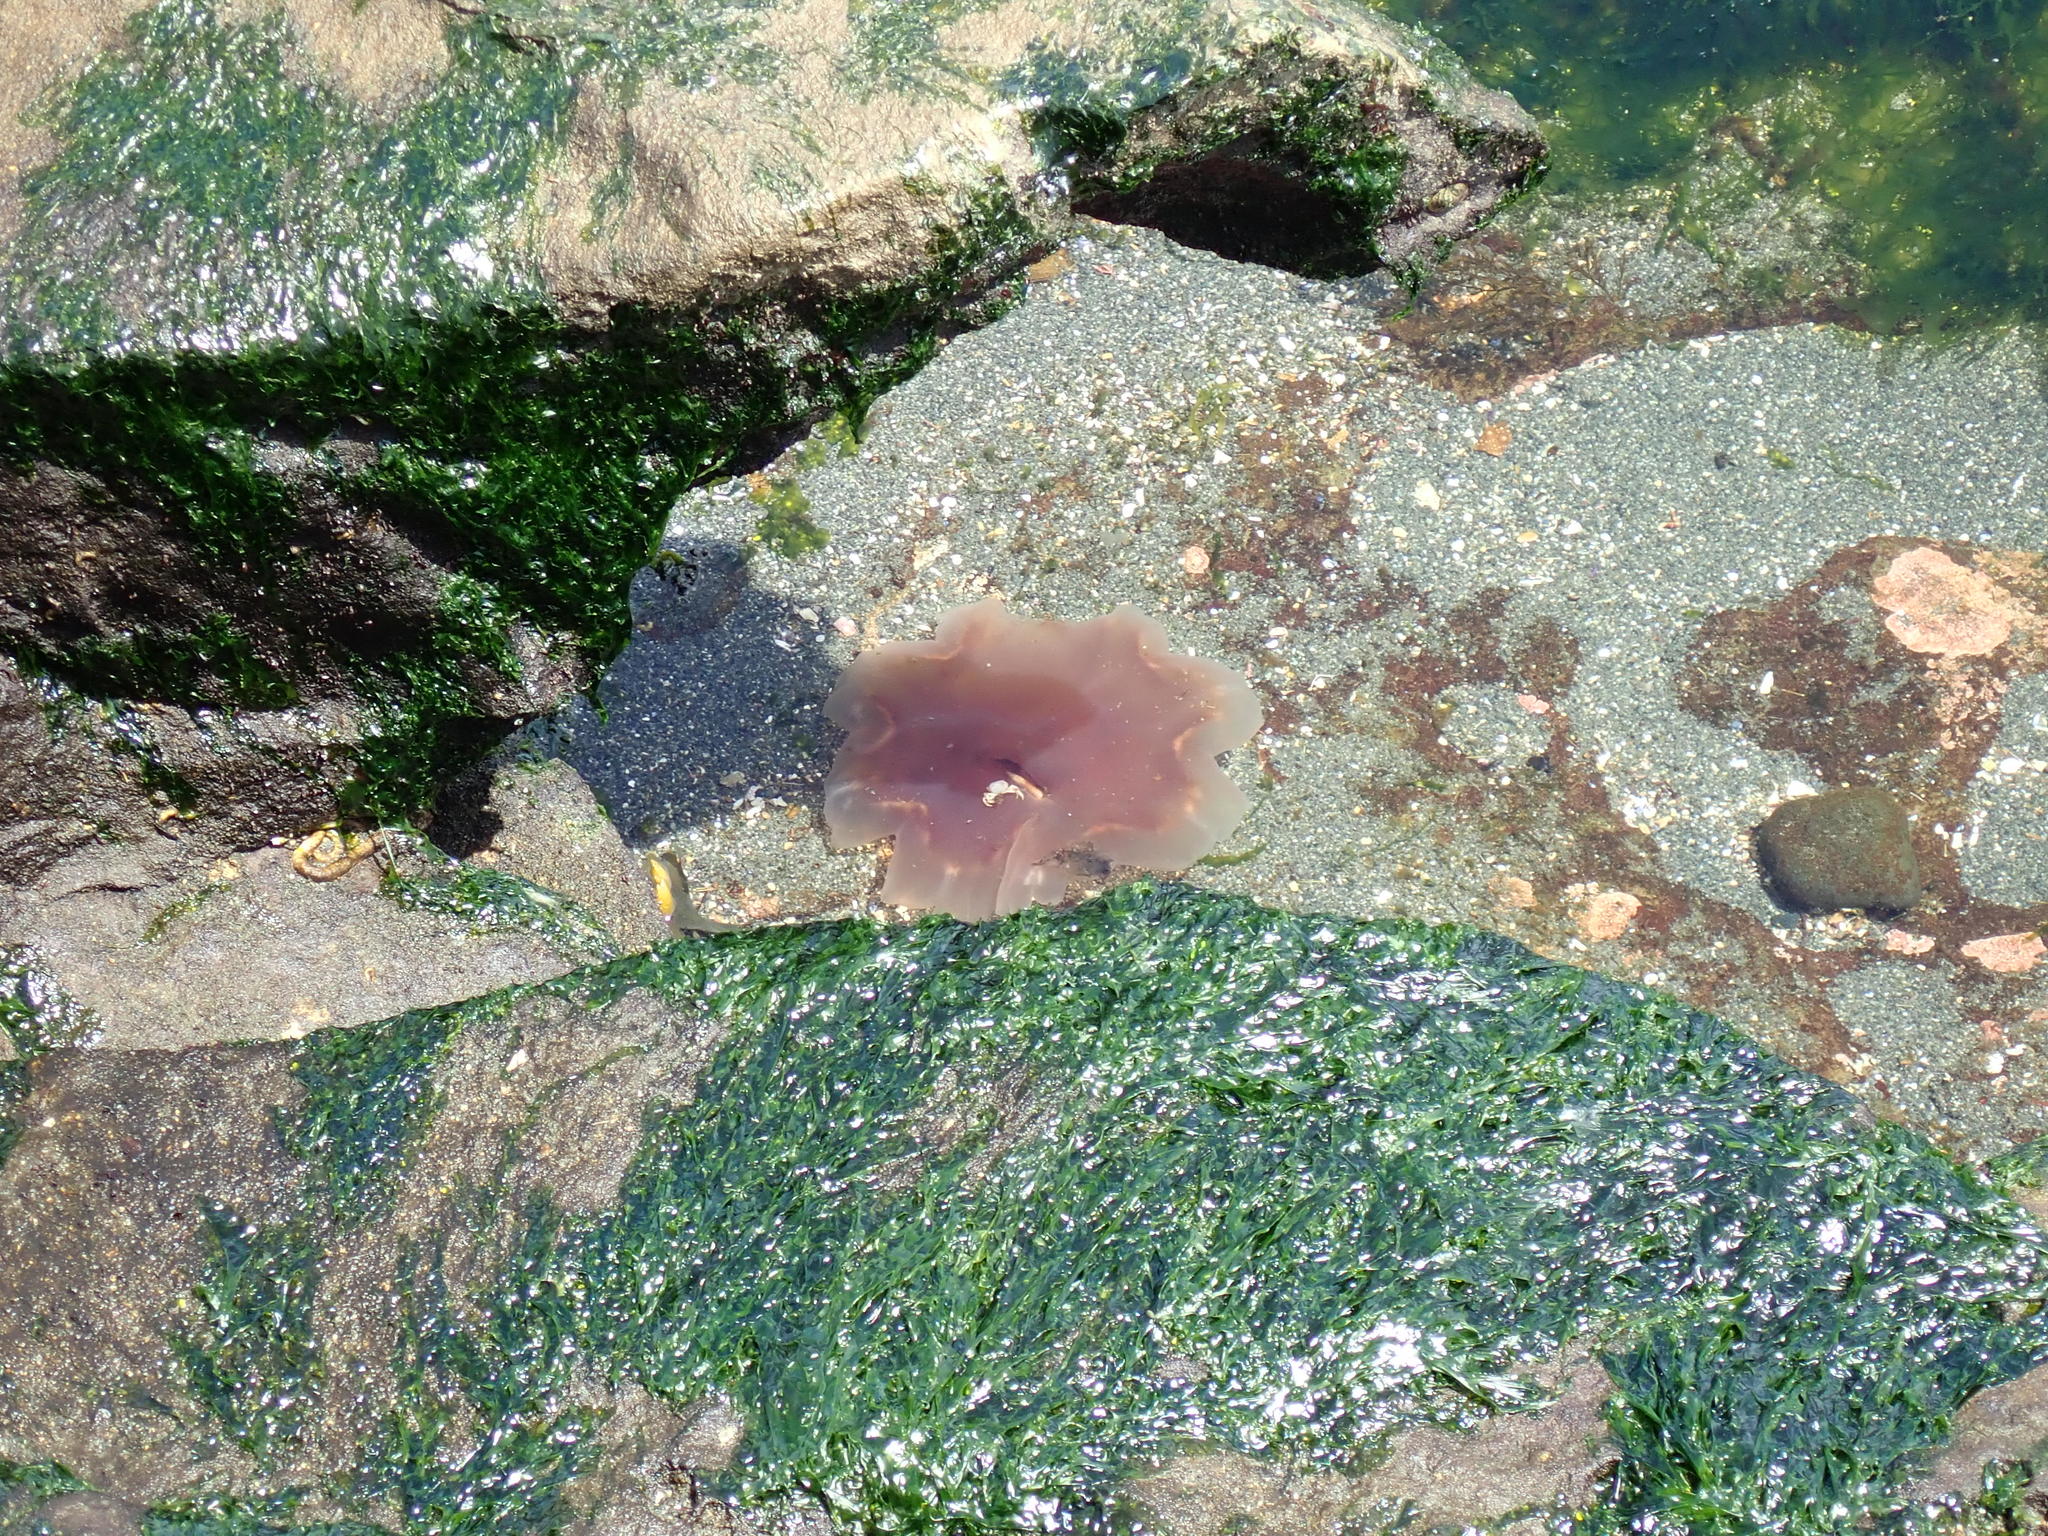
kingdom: Animalia
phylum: Cnidaria
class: Scyphozoa
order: Semaeostomeae
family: Cyaneidae
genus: Cyanea
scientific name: Cyanea ferruginea
